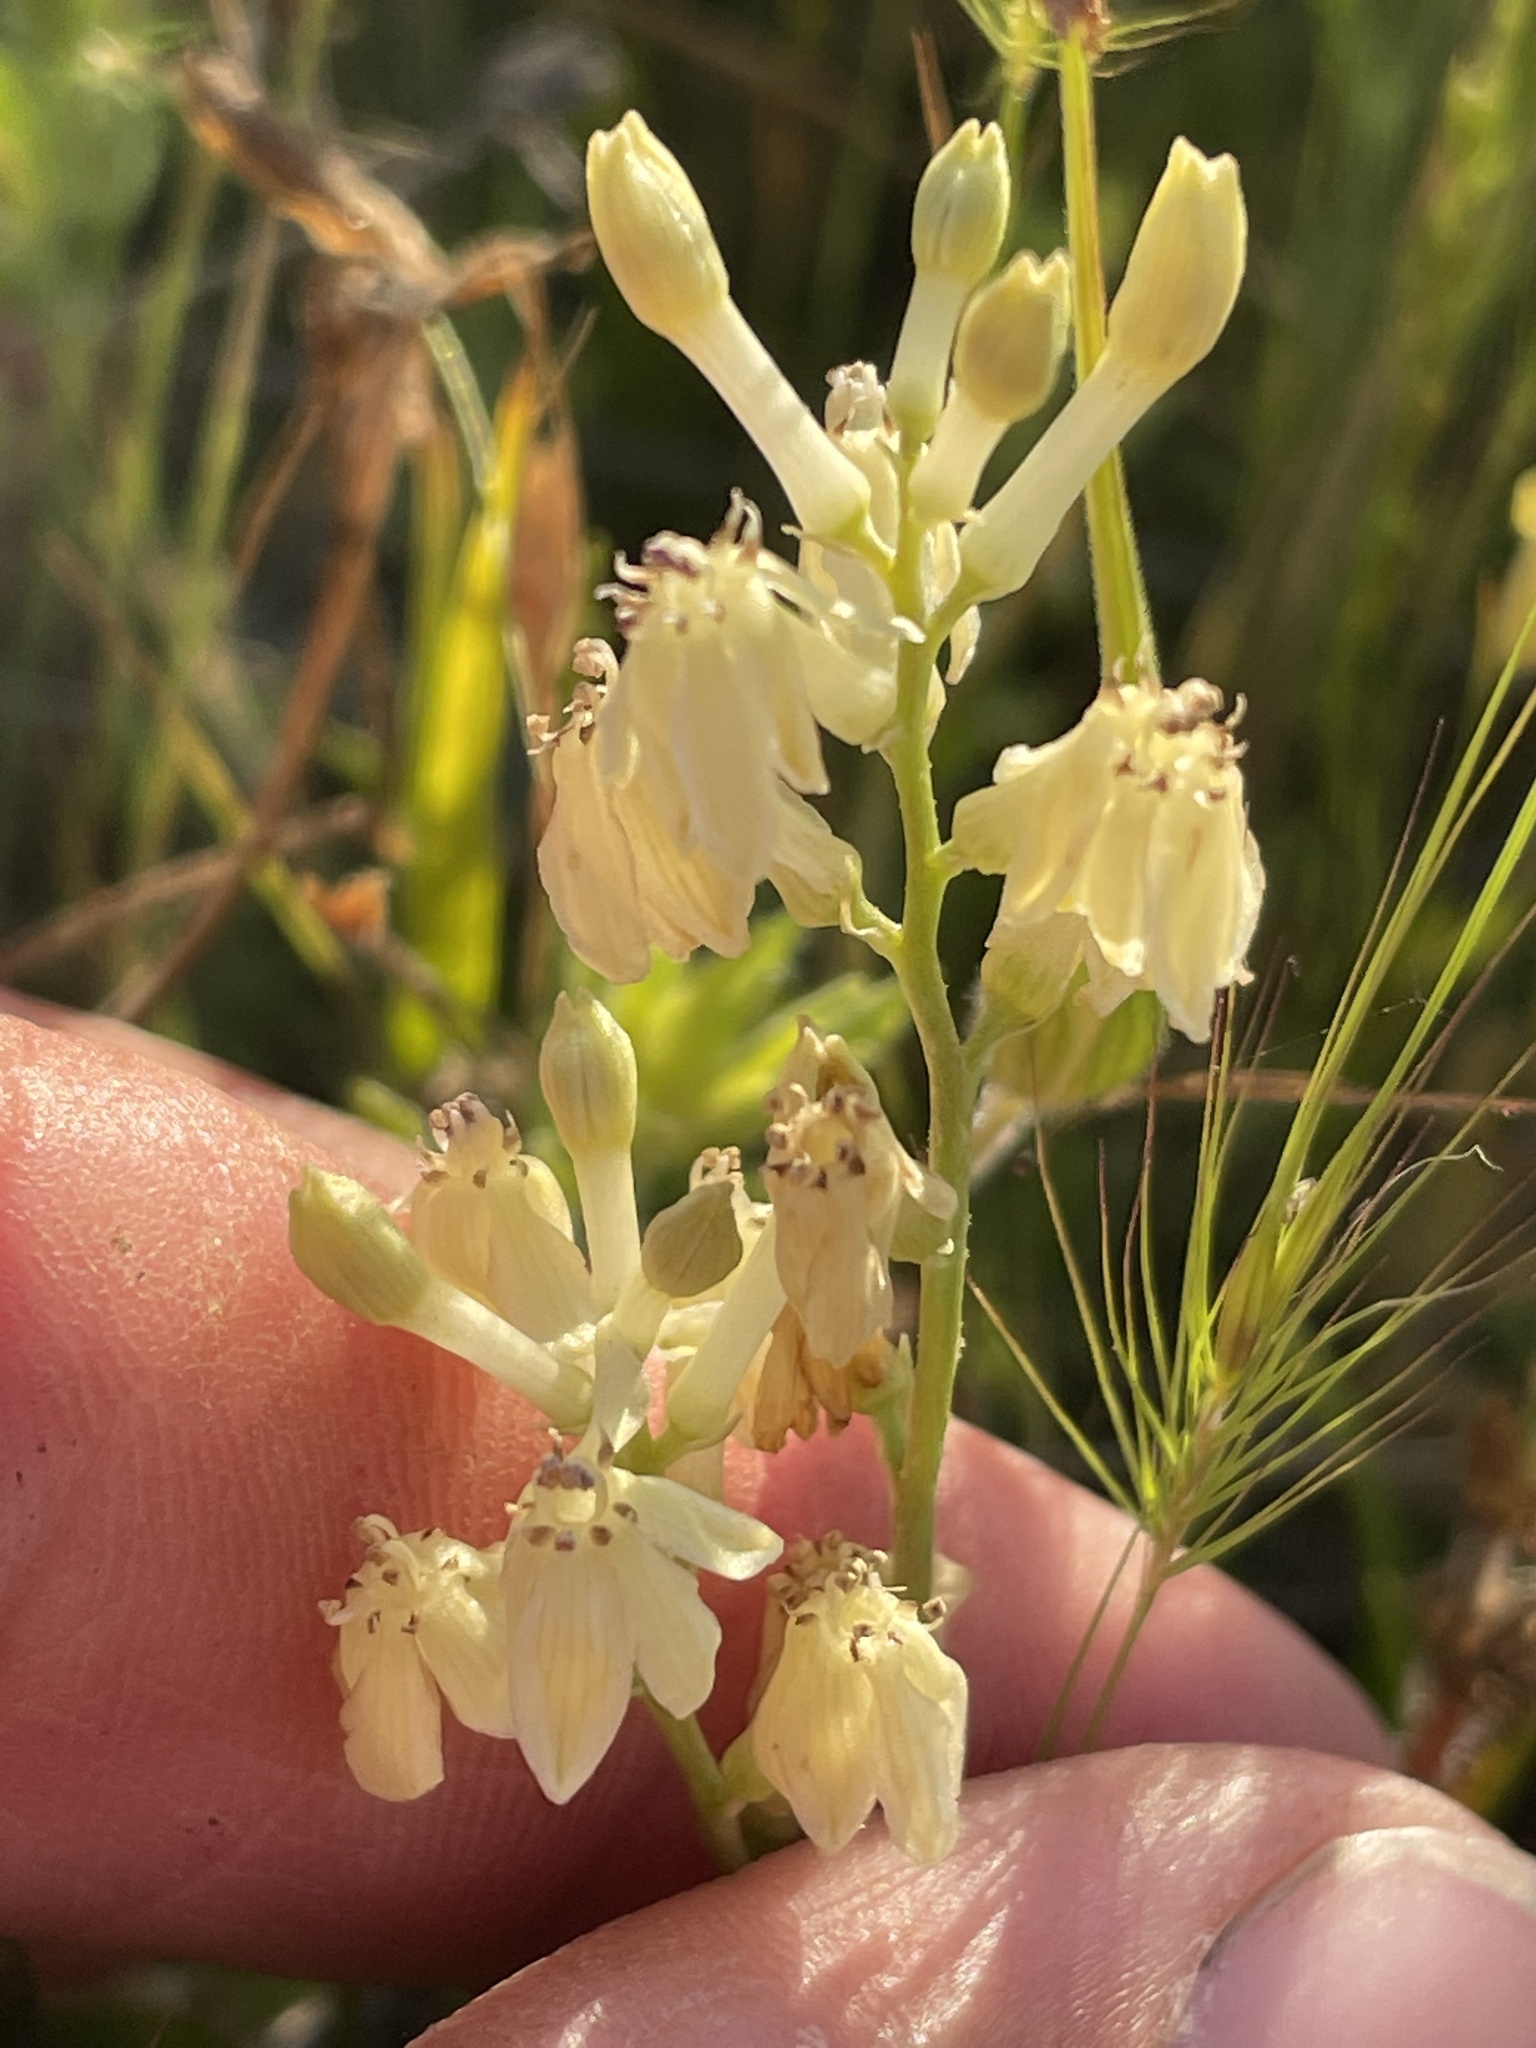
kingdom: Plantae
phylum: Tracheophyta
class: Liliopsida
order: Asparagales
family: Tecophilaeaceae
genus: Odontostomum
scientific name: Odontostomum hartwegii
